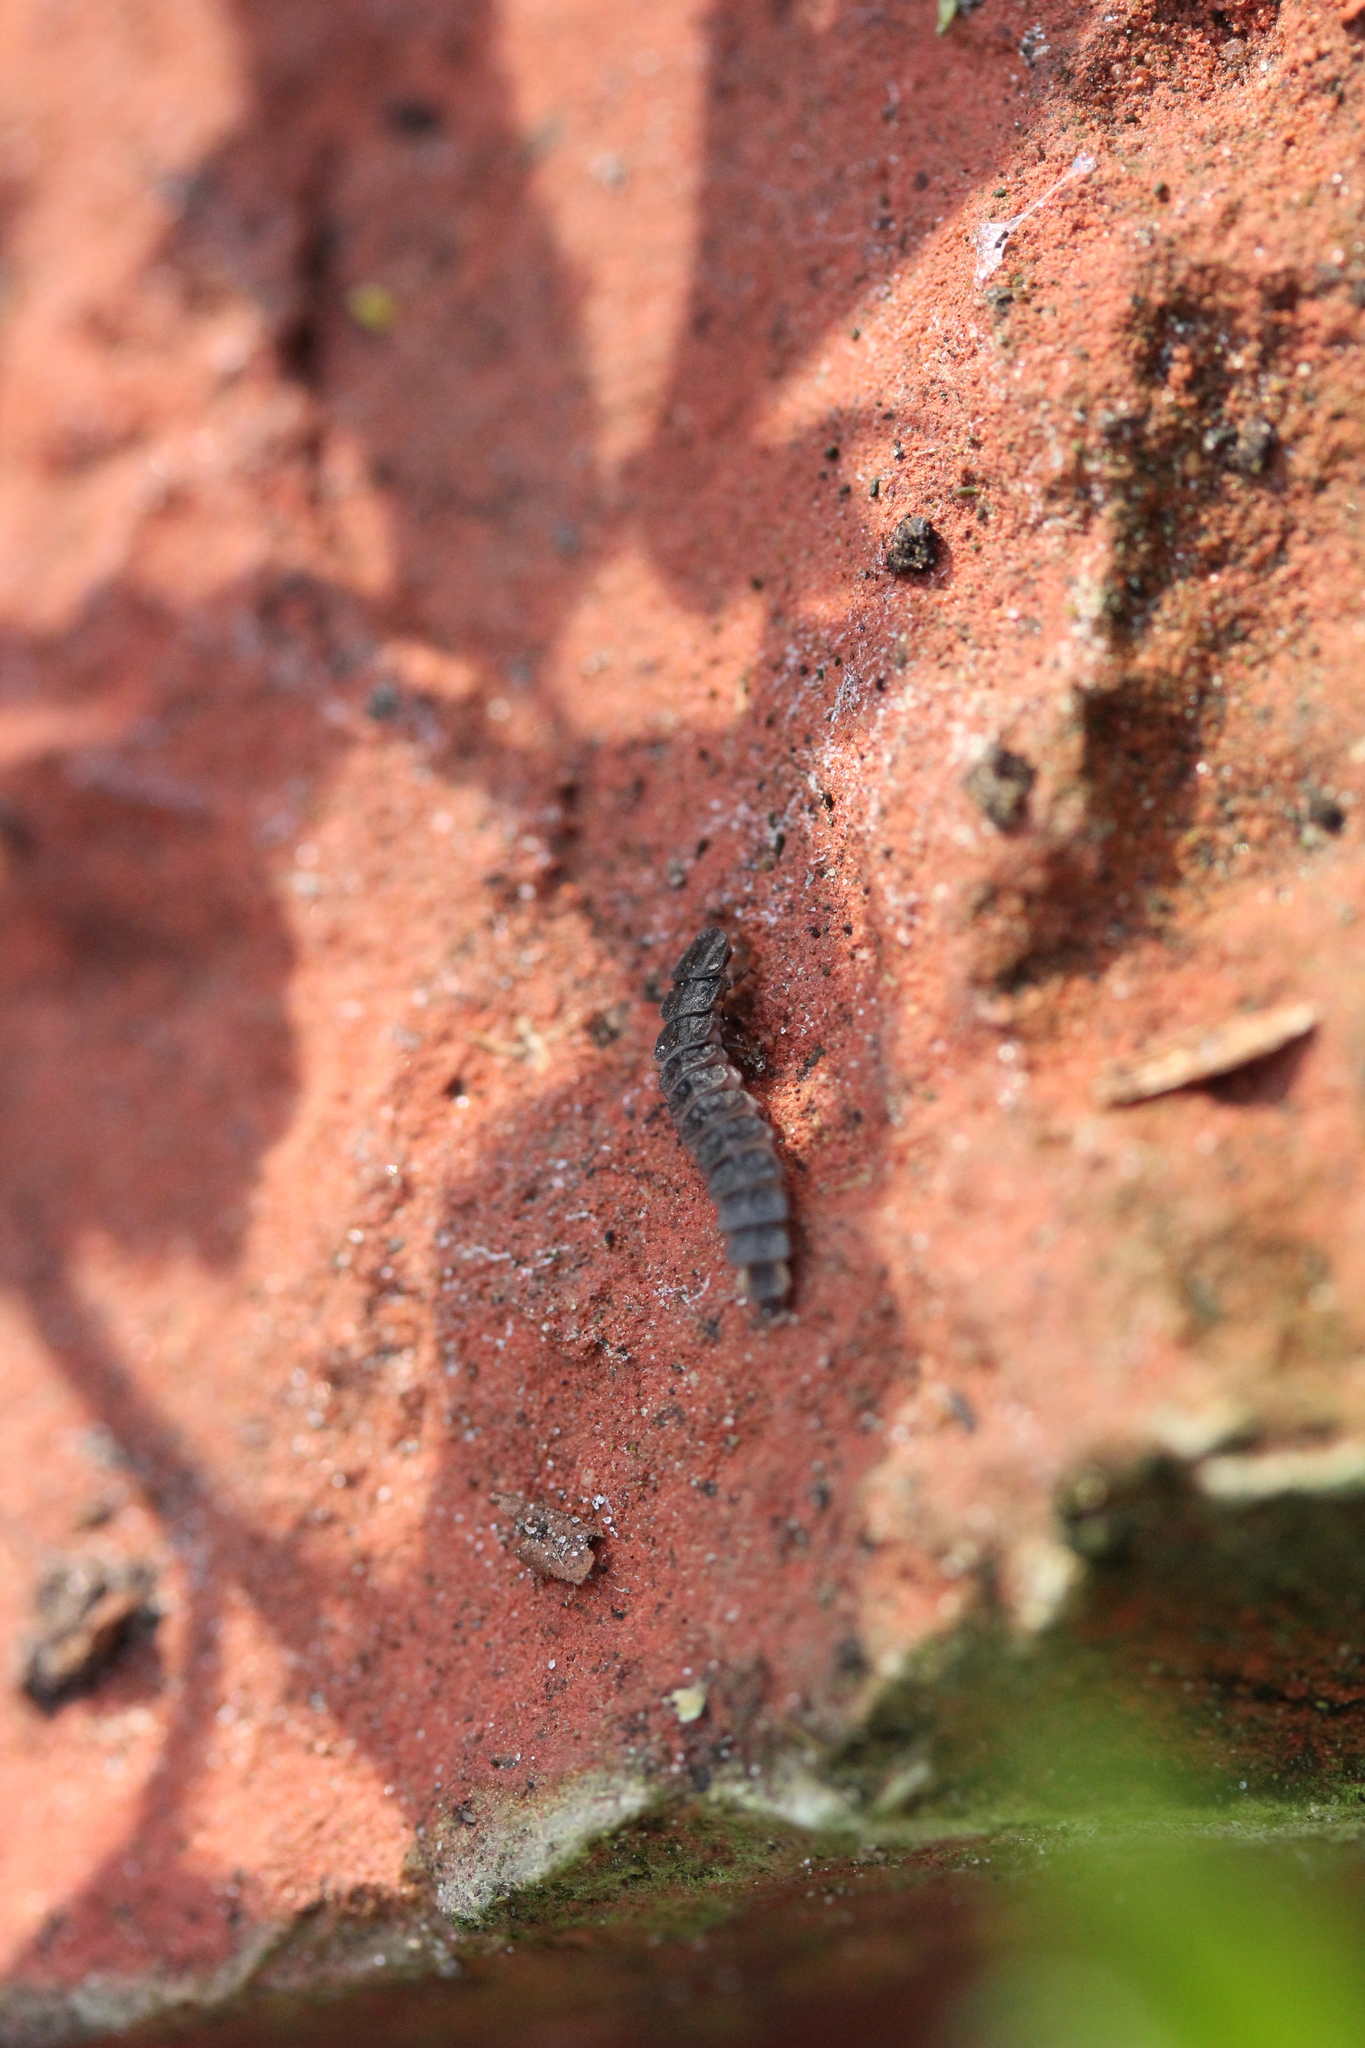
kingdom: Animalia
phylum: Arthropoda
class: Insecta
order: Coleoptera
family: Lampyridae
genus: Phosphaenus
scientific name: Phosphaenus hemipterus
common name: Short-winged firefly
